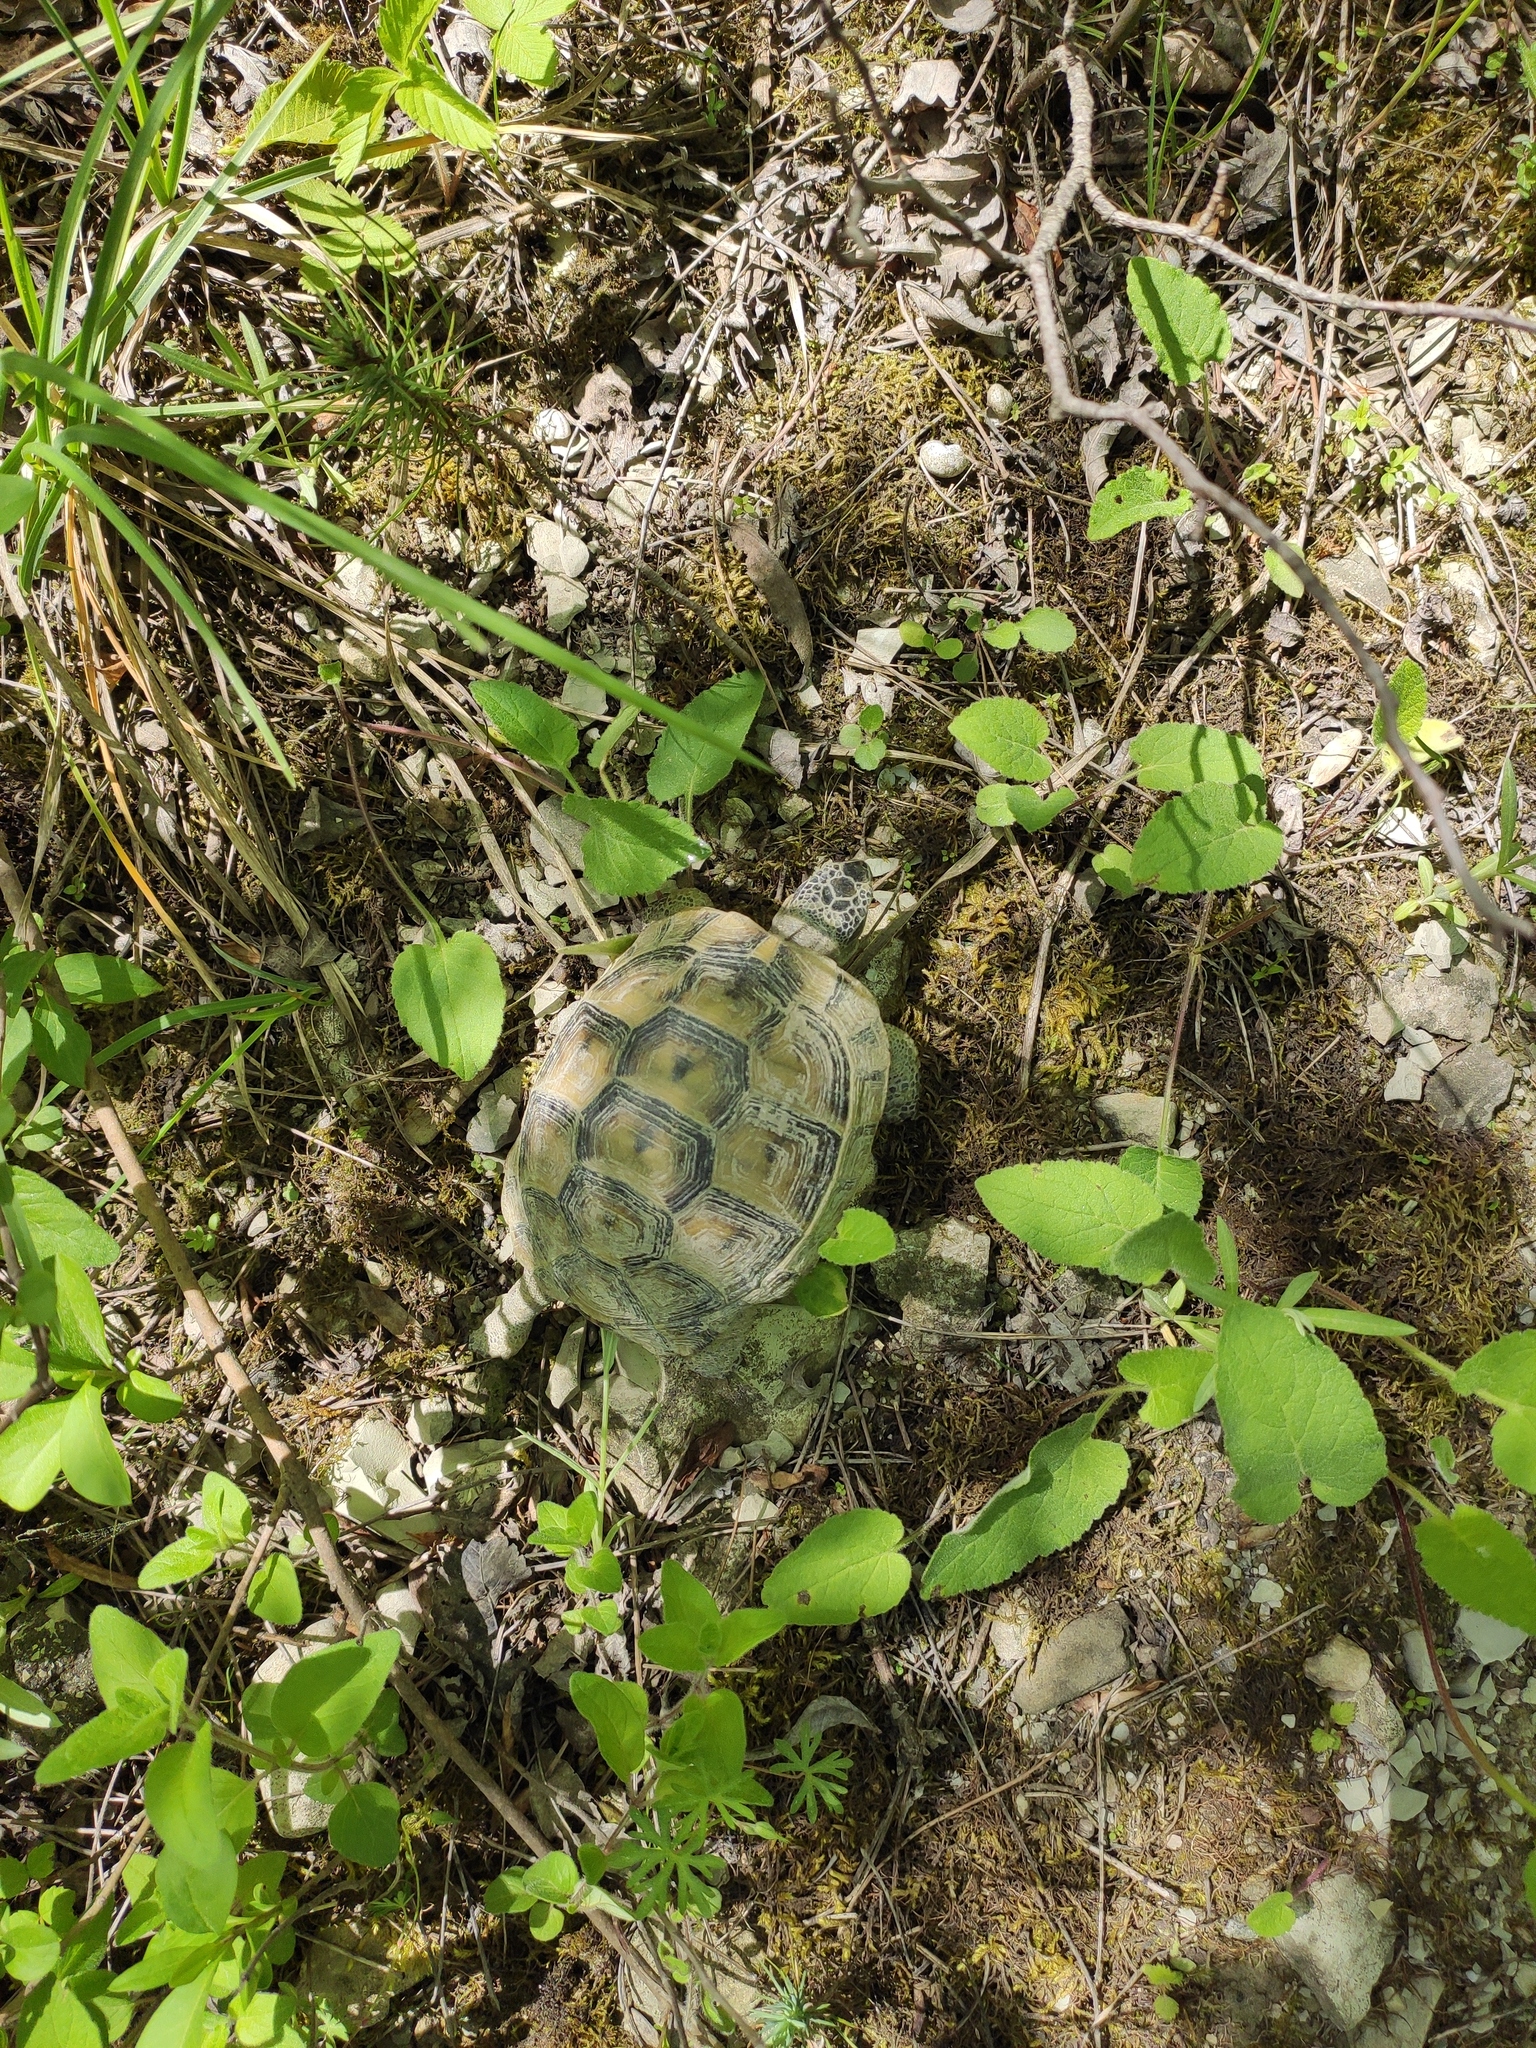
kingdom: Animalia
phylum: Chordata
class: Testudines
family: Testudinidae
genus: Testudo
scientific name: Testudo graeca
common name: Common tortoise
